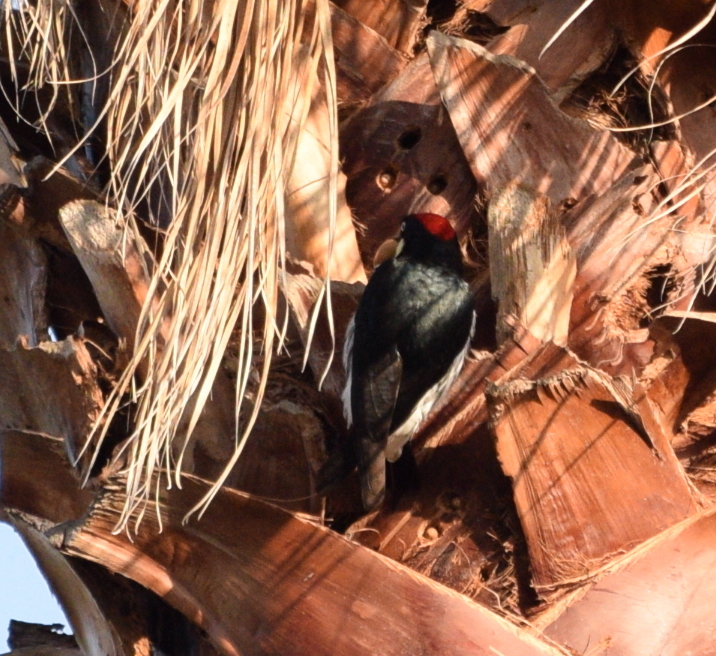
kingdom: Animalia
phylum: Chordata
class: Aves
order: Piciformes
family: Picidae
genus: Melanerpes
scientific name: Melanerpes formicivorus
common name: Acorn woodpecker
